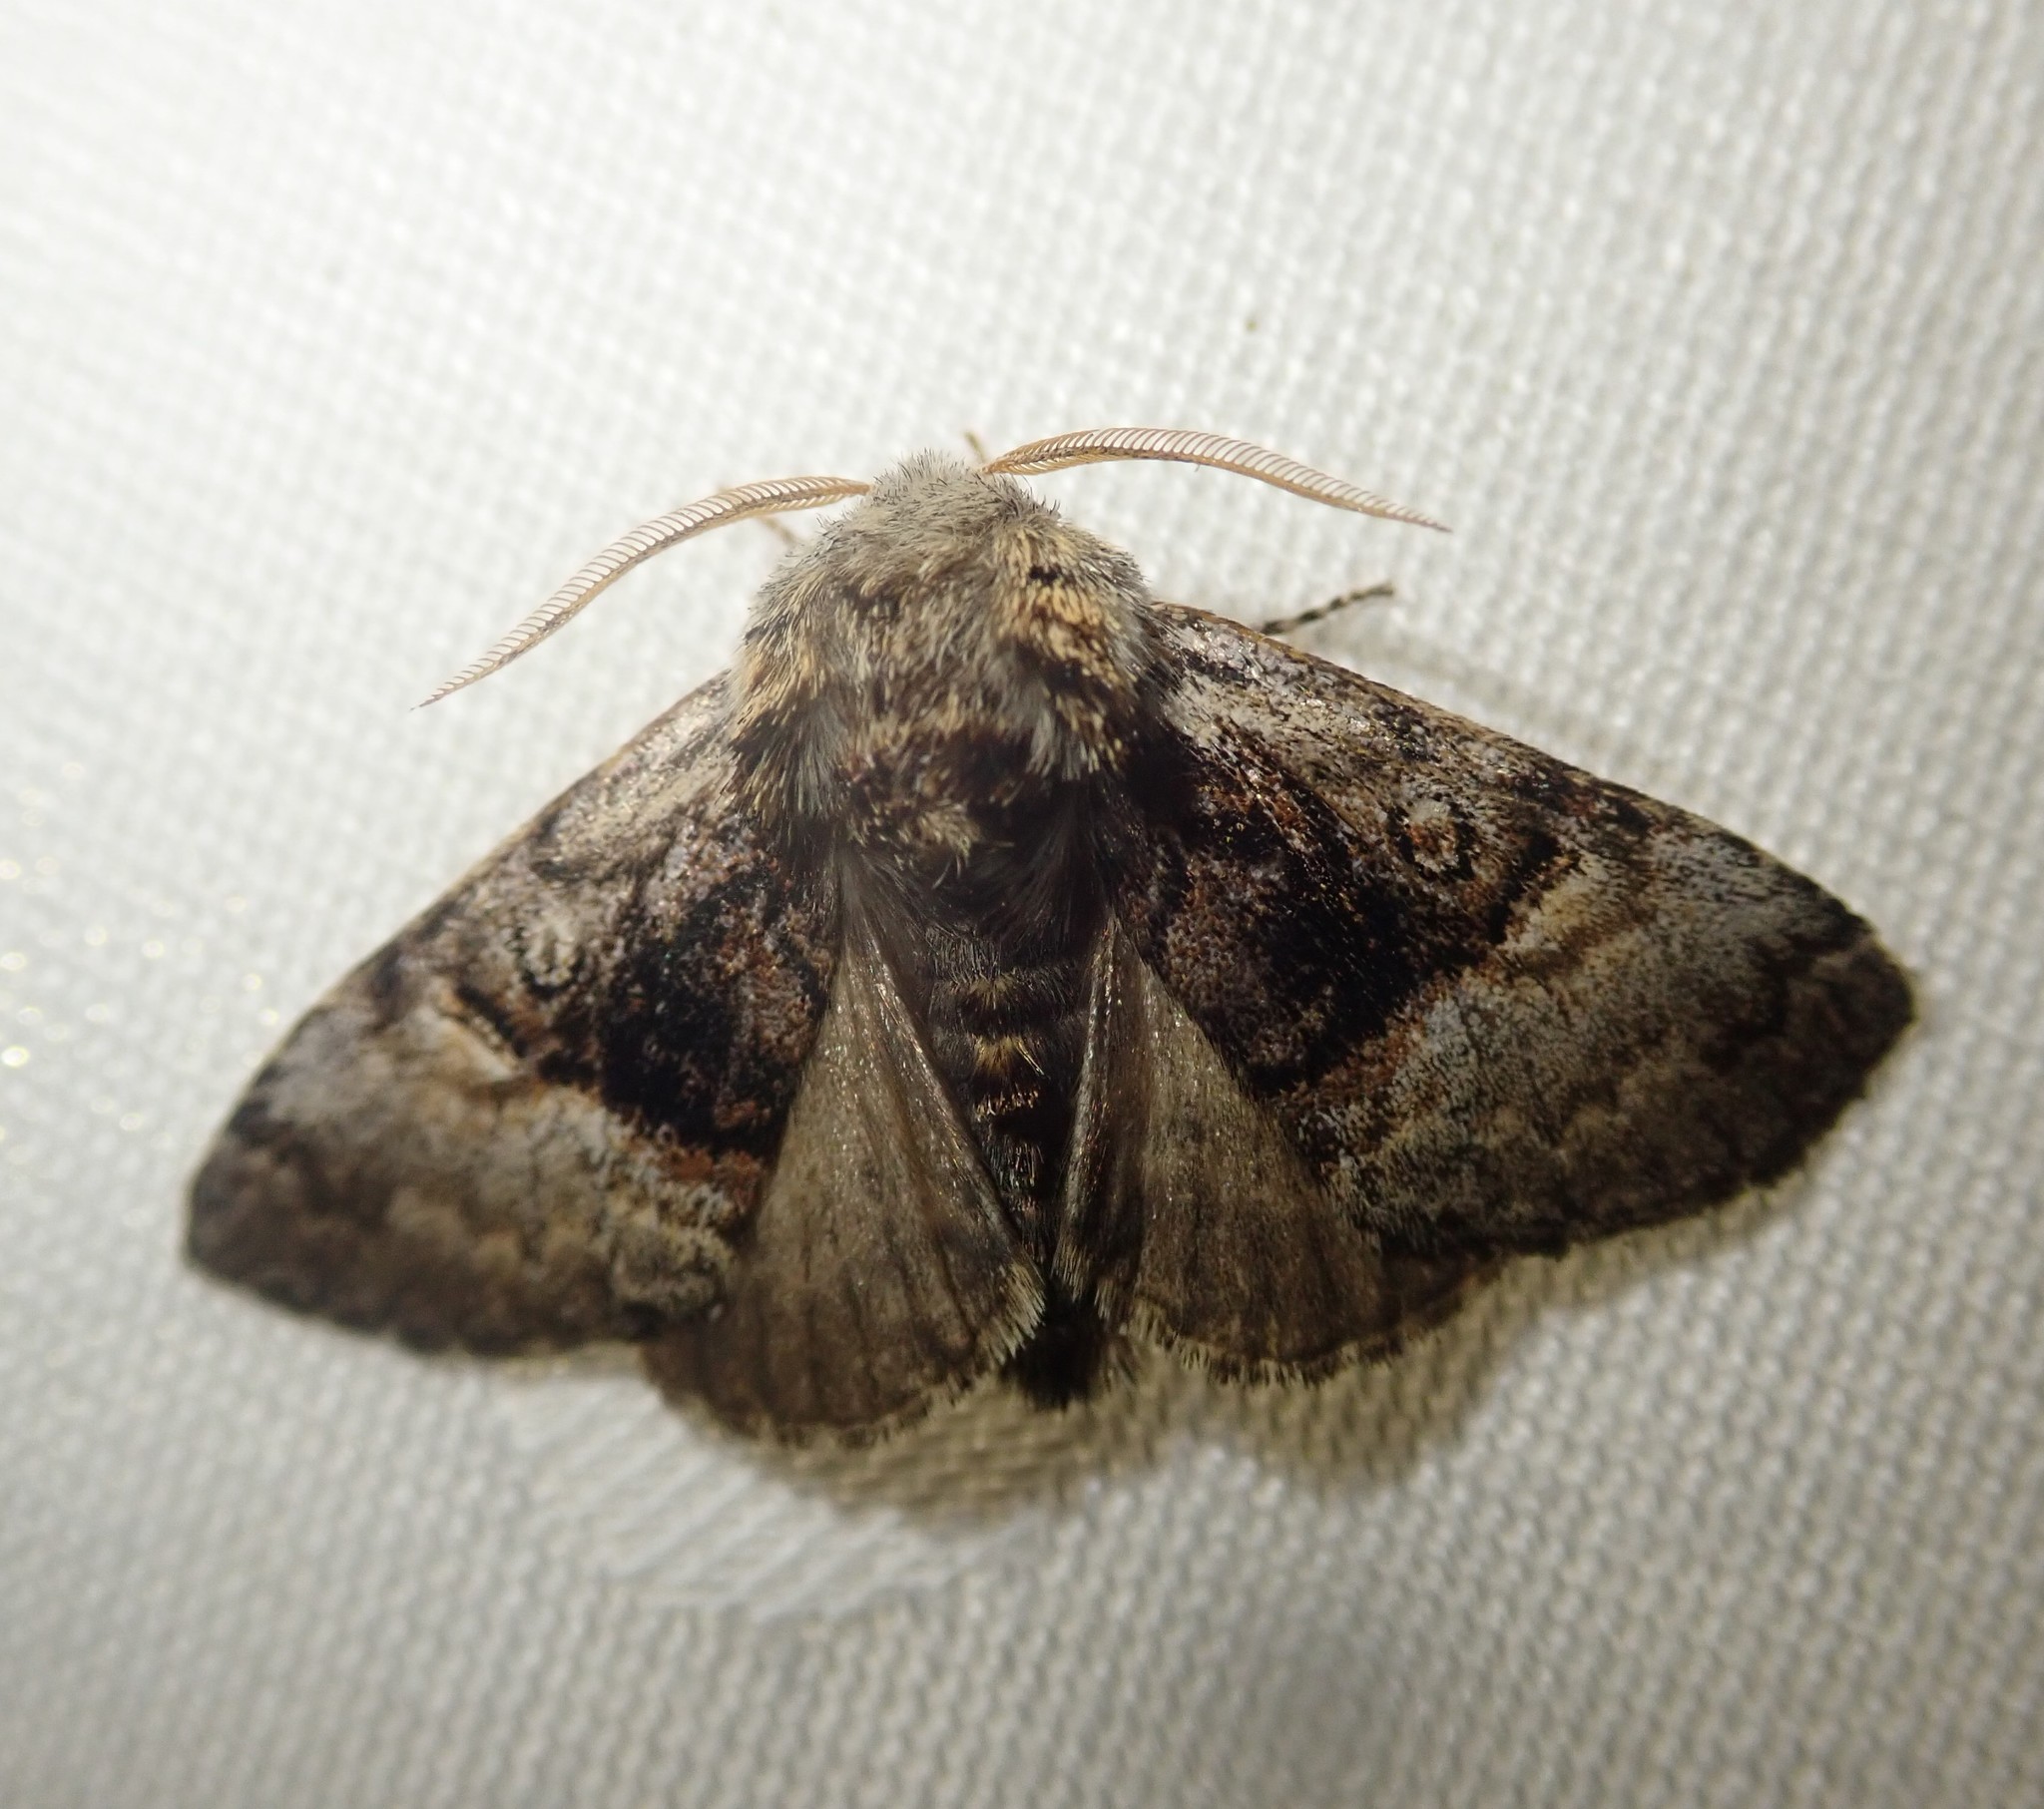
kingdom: Animalia
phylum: Arthropoda
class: Insecta
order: Lepidoptera
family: Noctuidae
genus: Colocasia
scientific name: Colocasia coryli
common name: Nut-tree tussock
